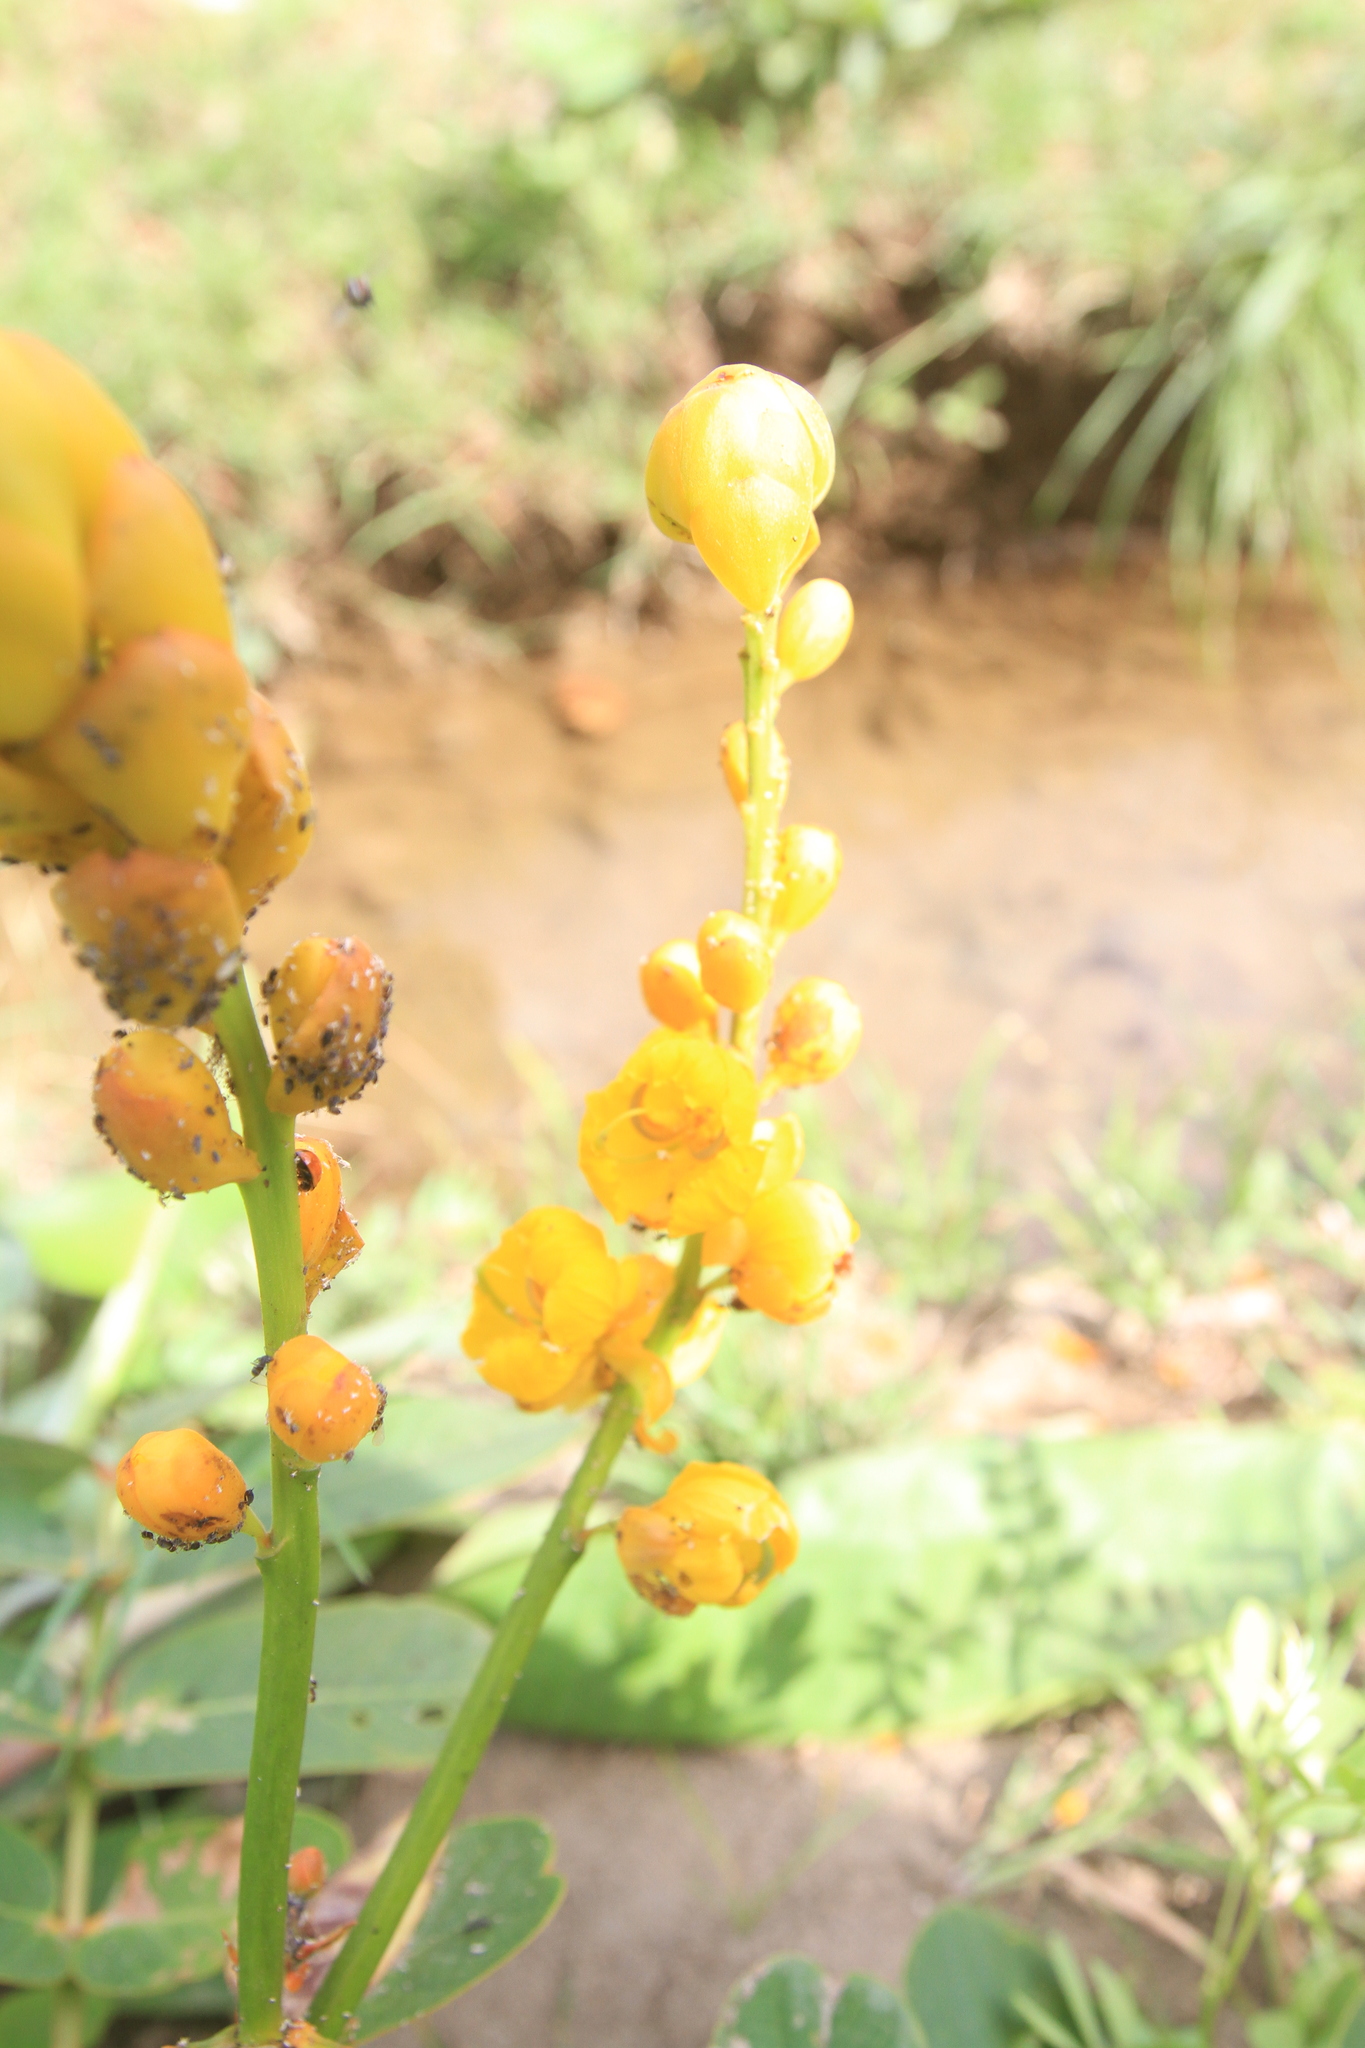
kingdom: Plantae
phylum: Tracheophyta
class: Magnoliopsida
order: Fabales
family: Fabaceae
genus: Senna
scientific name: Senna alata
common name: Emperor's candlesticks
